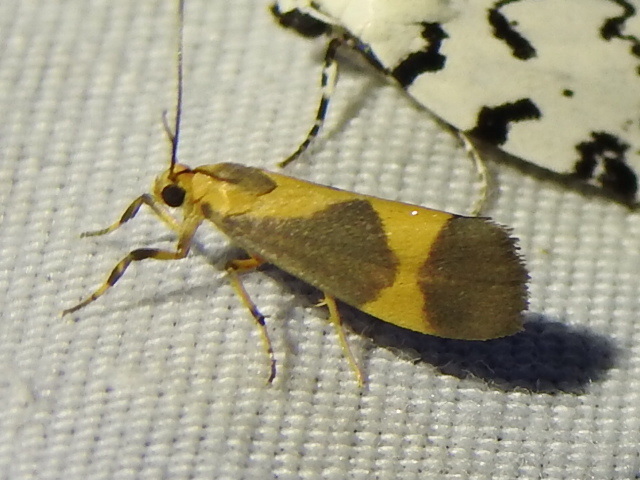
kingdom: Animalia
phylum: Arthropoda
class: Insecta
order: Lepidoptera
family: Erebidae
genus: Cisthene
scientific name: Cisthene unifascia
